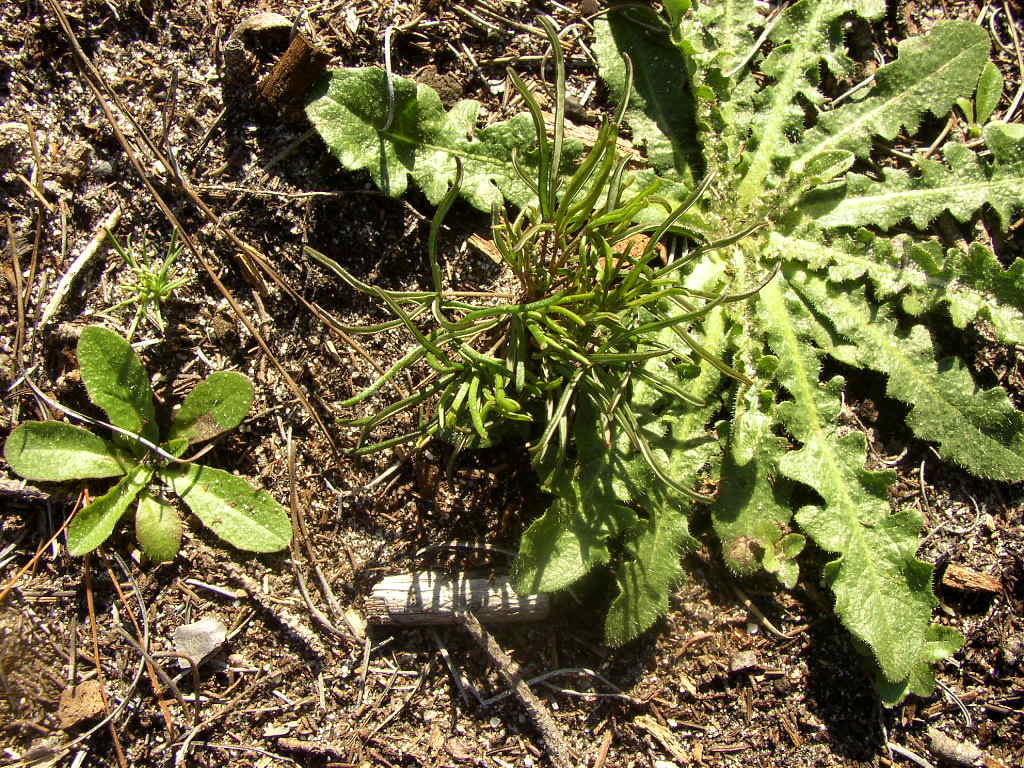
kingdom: Plantae
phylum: Tracheophyta
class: Magnoliopsida
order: Oxalidales
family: Oxalidaceae
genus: Oxalis
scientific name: Oxalis polyphylla
